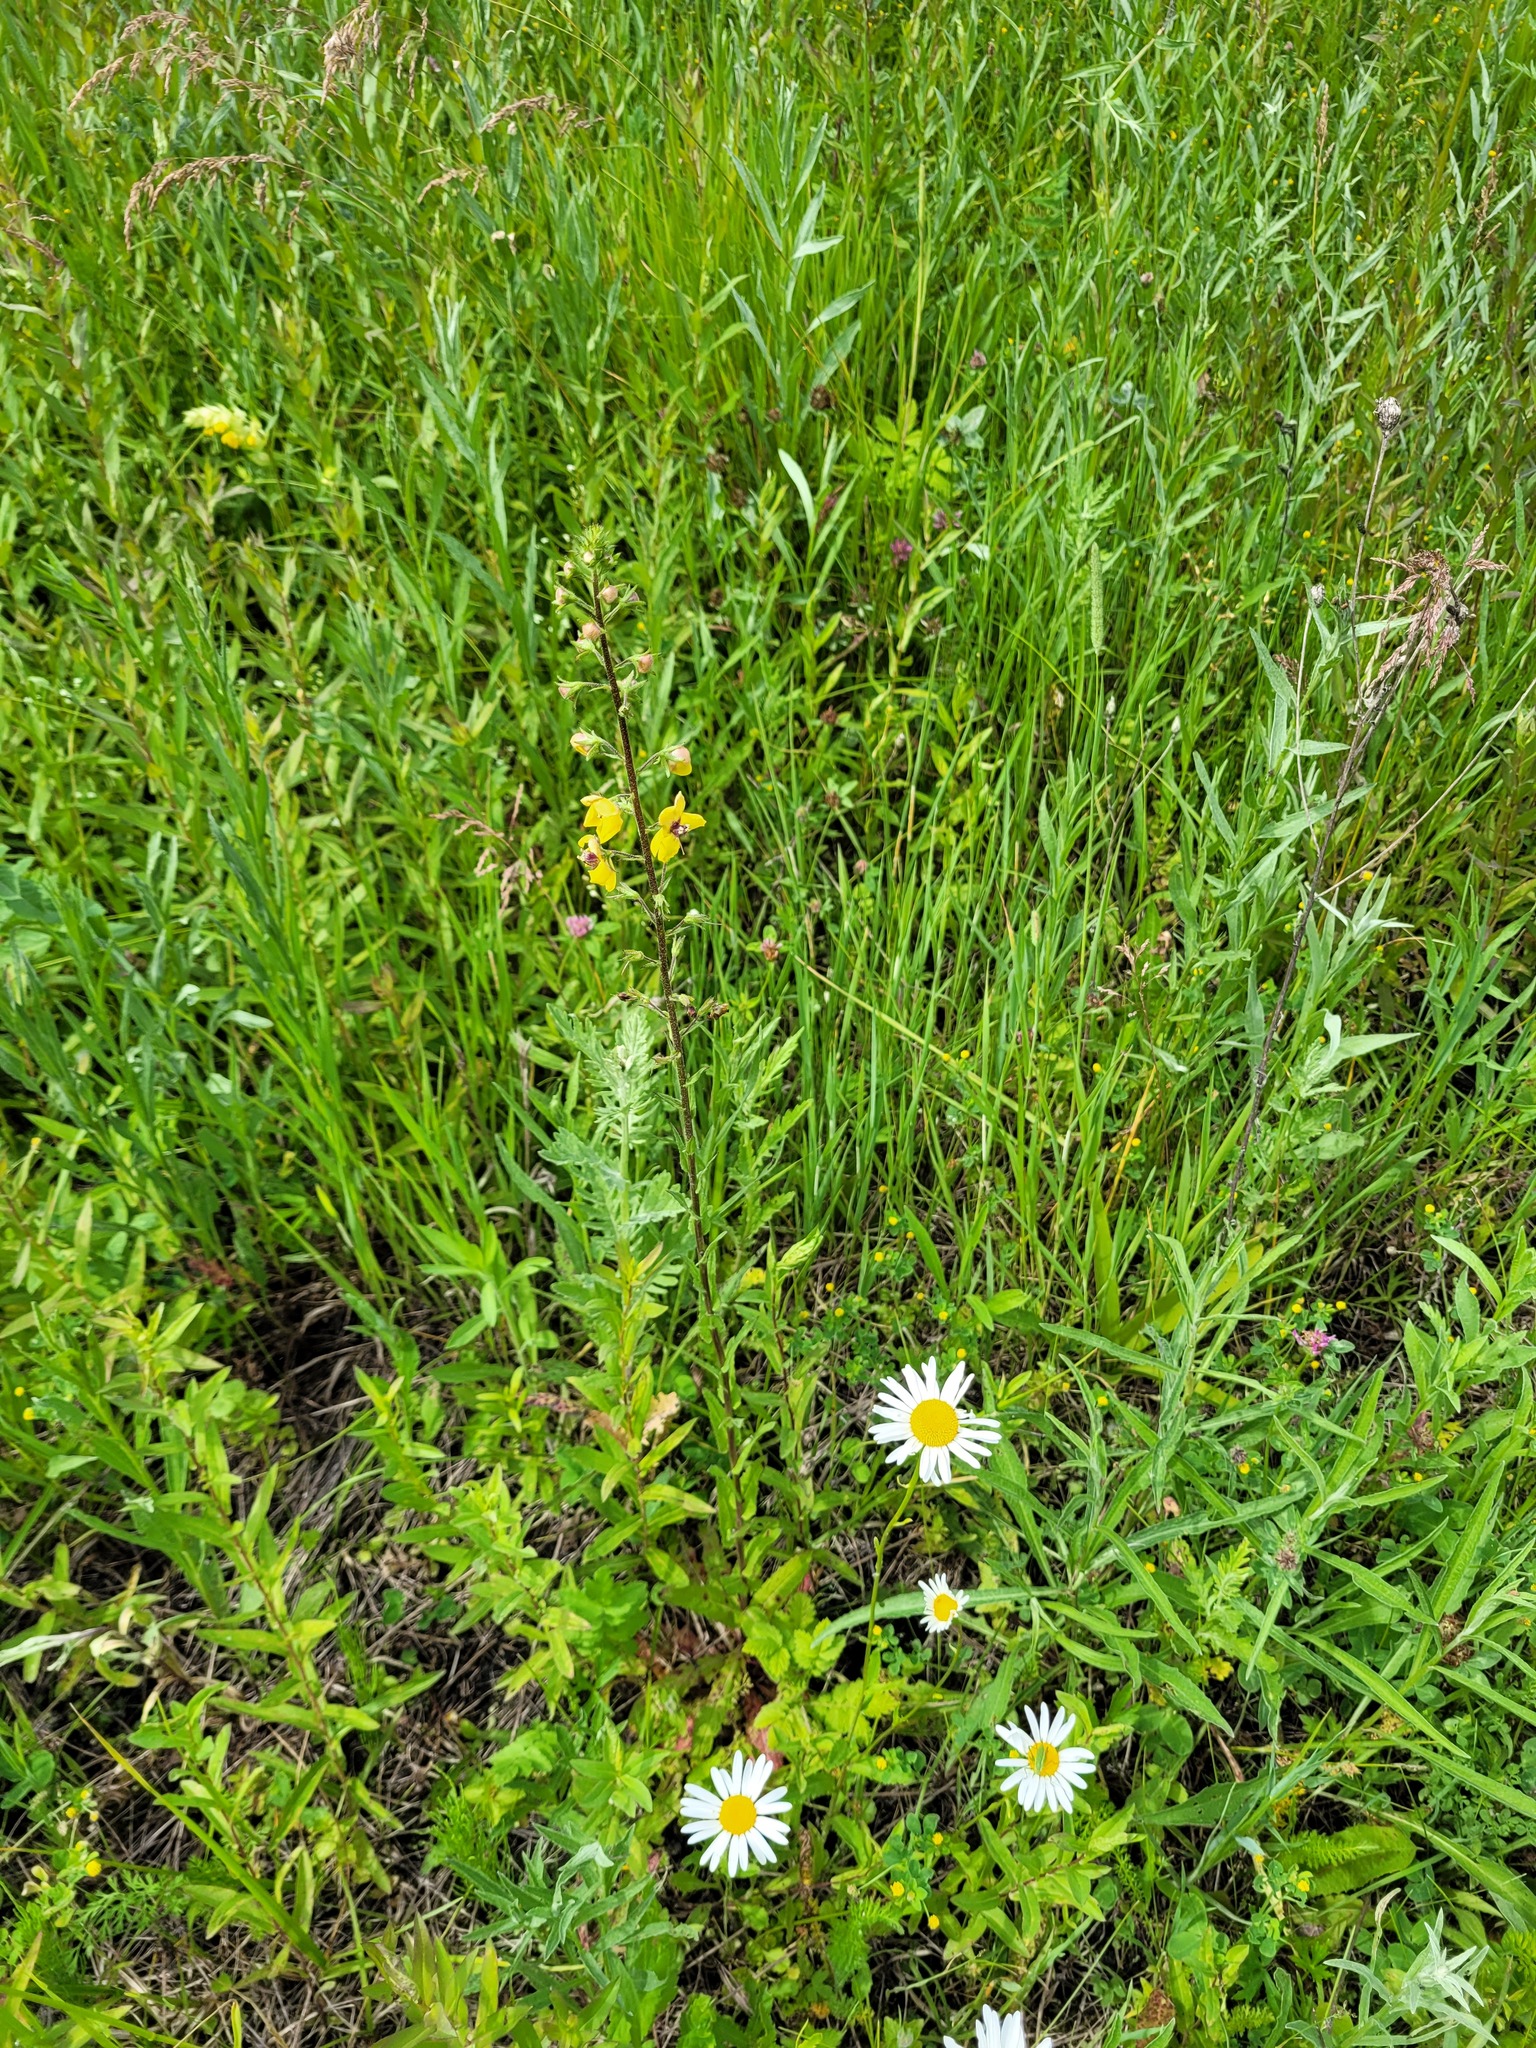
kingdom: Plantae
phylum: Tracheophyta
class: Magnoliopsida
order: Lamiales
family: Scrophulariaceae
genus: Verbascum
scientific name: Verbascum blattaria
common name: Moth mullein
